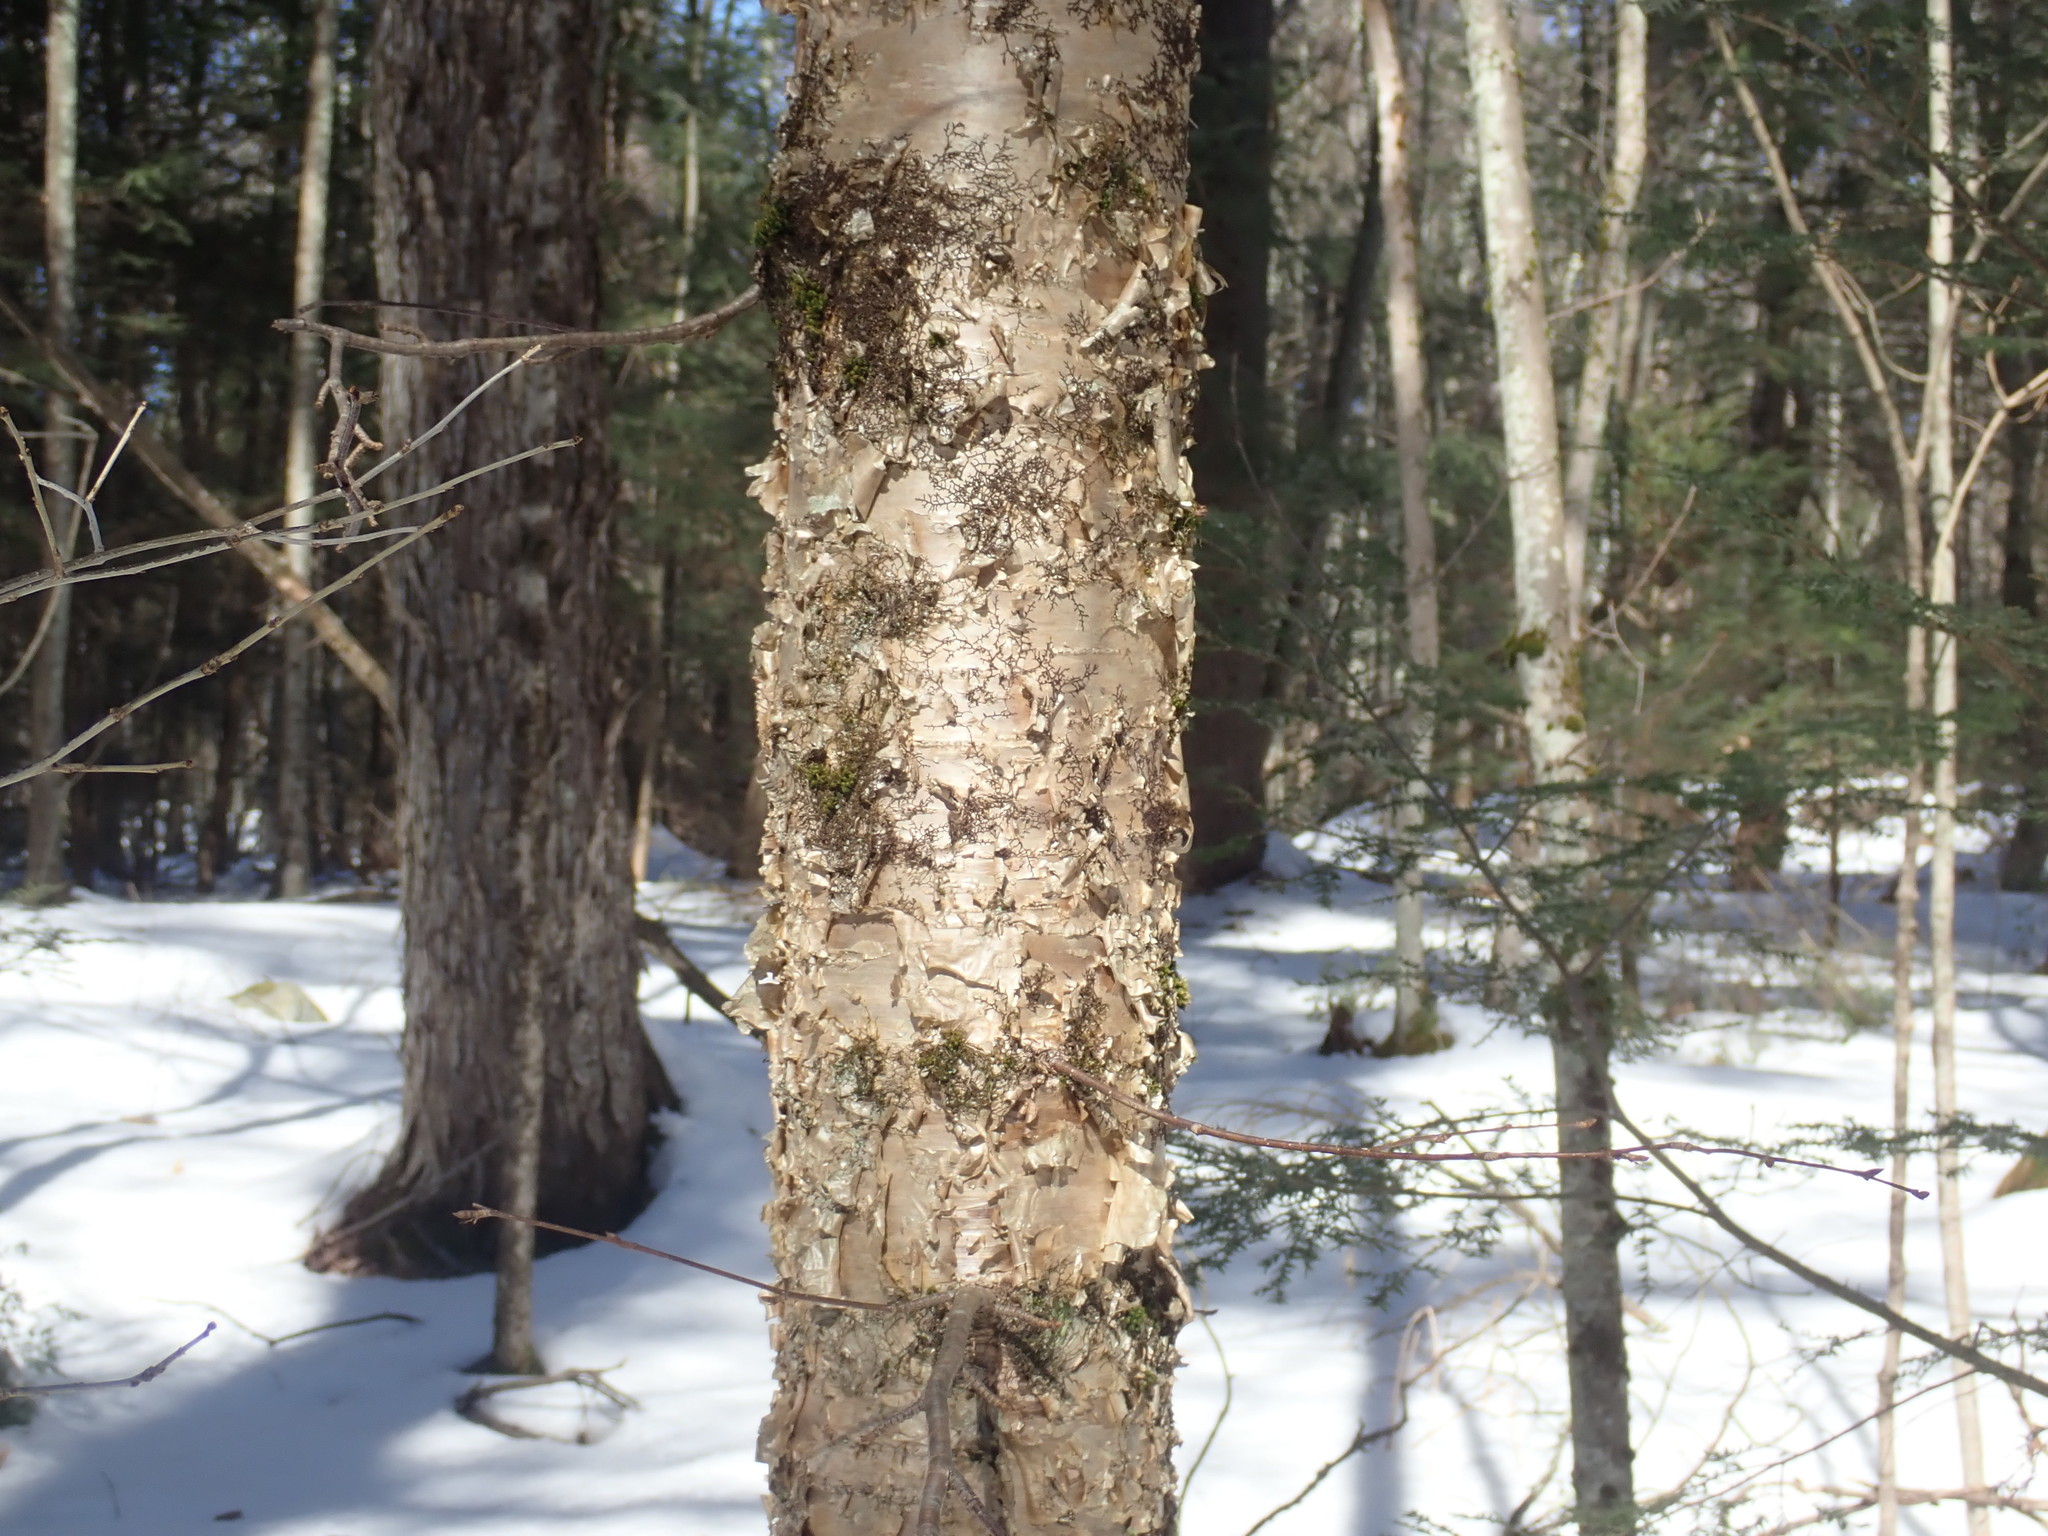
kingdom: Plantae
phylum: Tracheophyta
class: Magnoliopsida
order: Fagales
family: Betulaceae
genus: Betula
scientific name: Betula alleghaniensis
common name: Yellow birch
